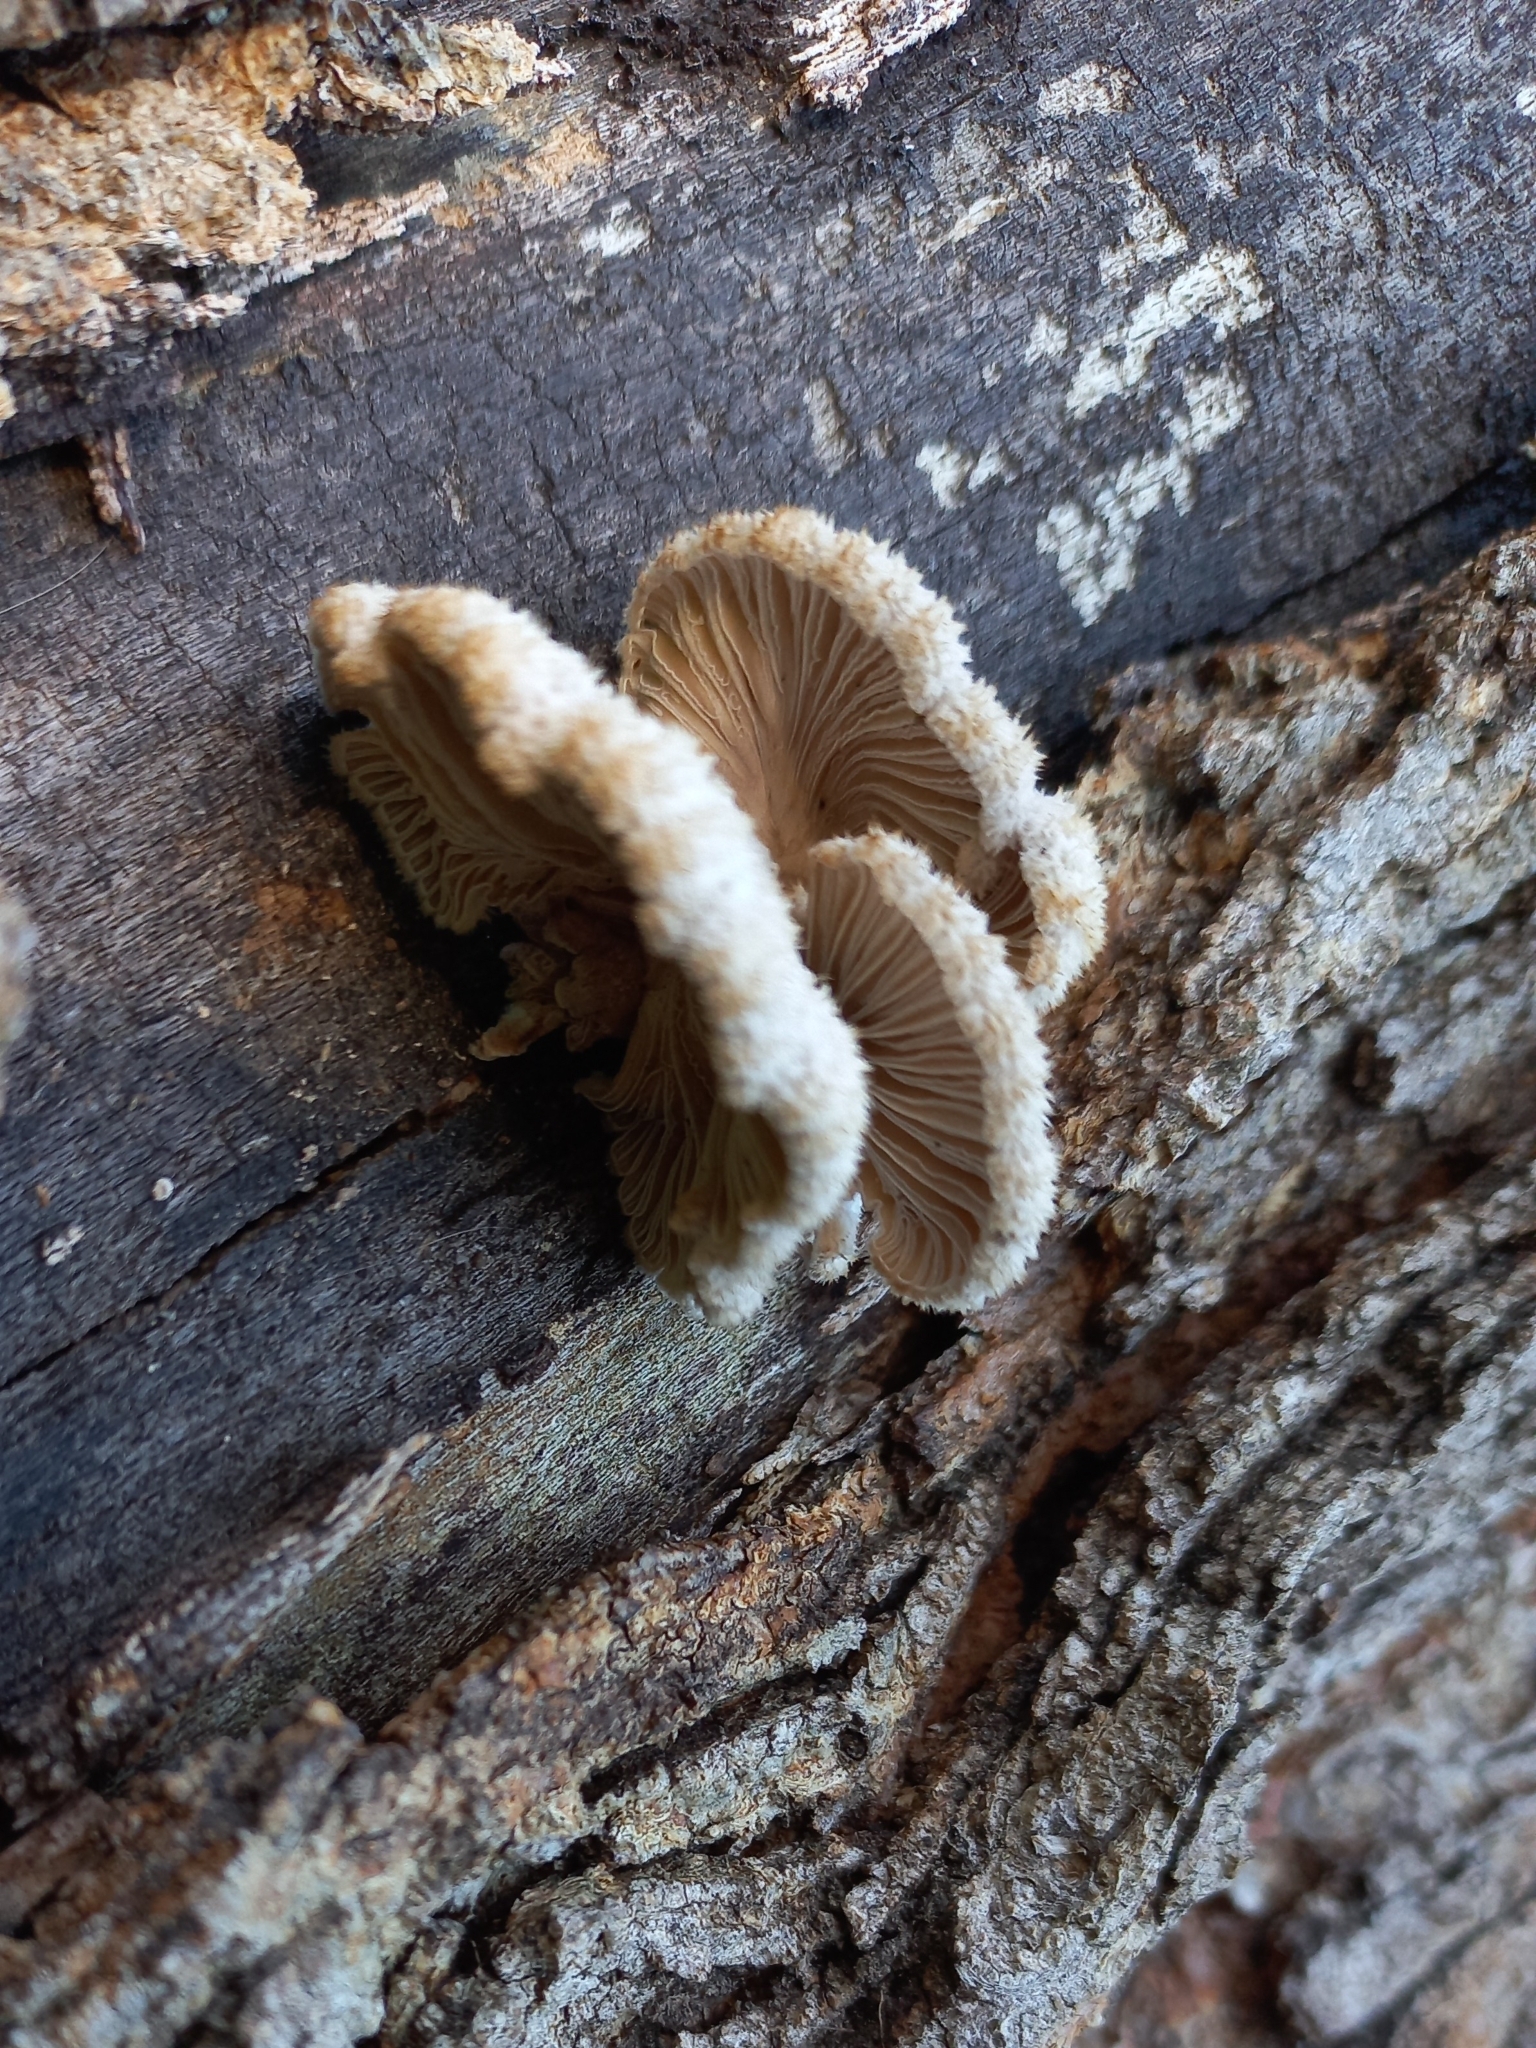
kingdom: Fungi
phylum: Basidiomycota
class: Agaricomycetes
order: Agaricales
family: Schizophyllaceae
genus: Schizophyllum
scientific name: Schizophyllum commune
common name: Common porecrust
